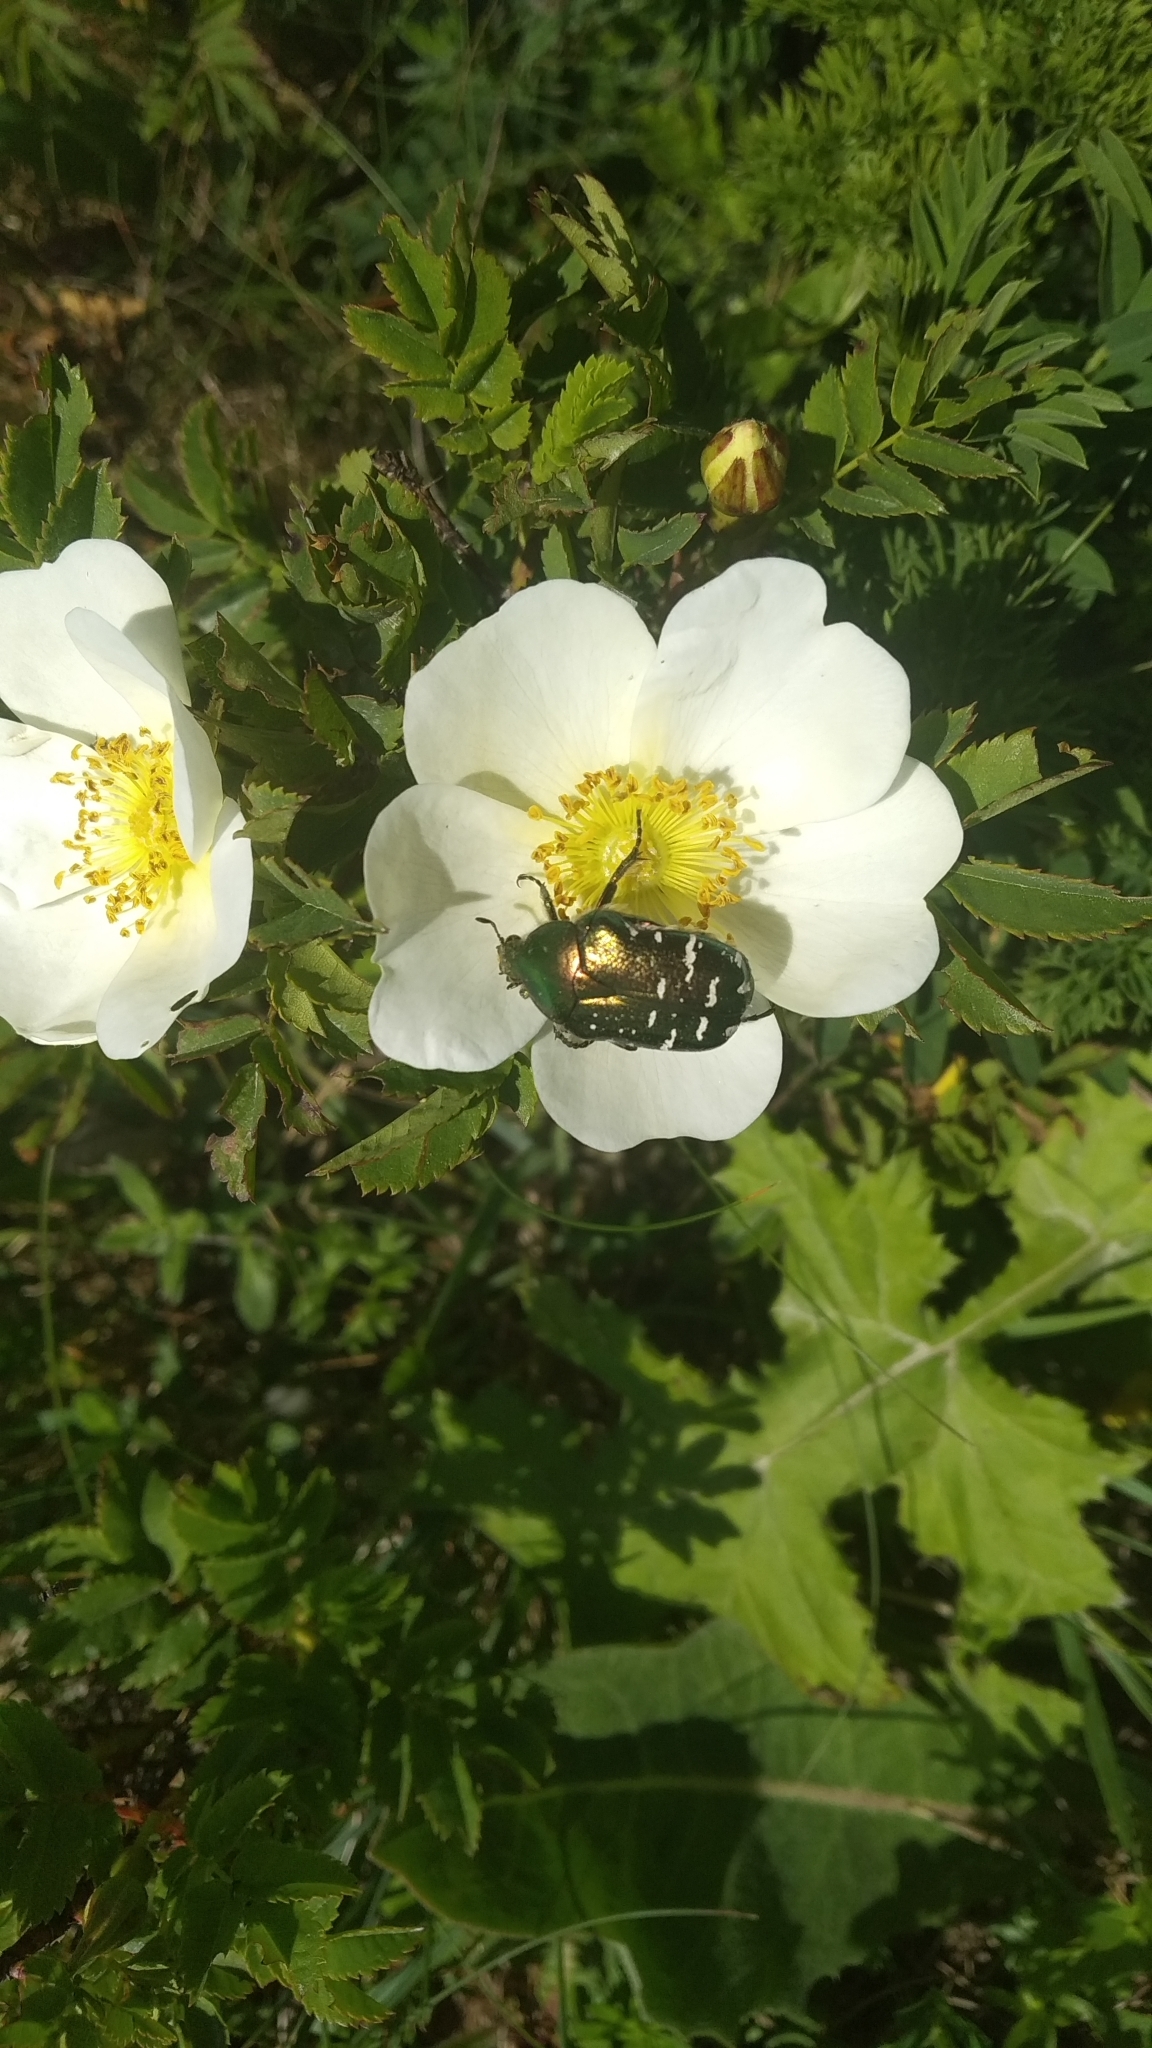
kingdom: Animalia
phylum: Arthropoda
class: Insecta
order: Coleoptera
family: Scarabaeidae
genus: Cetonia
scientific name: Cetonia aurata
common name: Rose chafer
